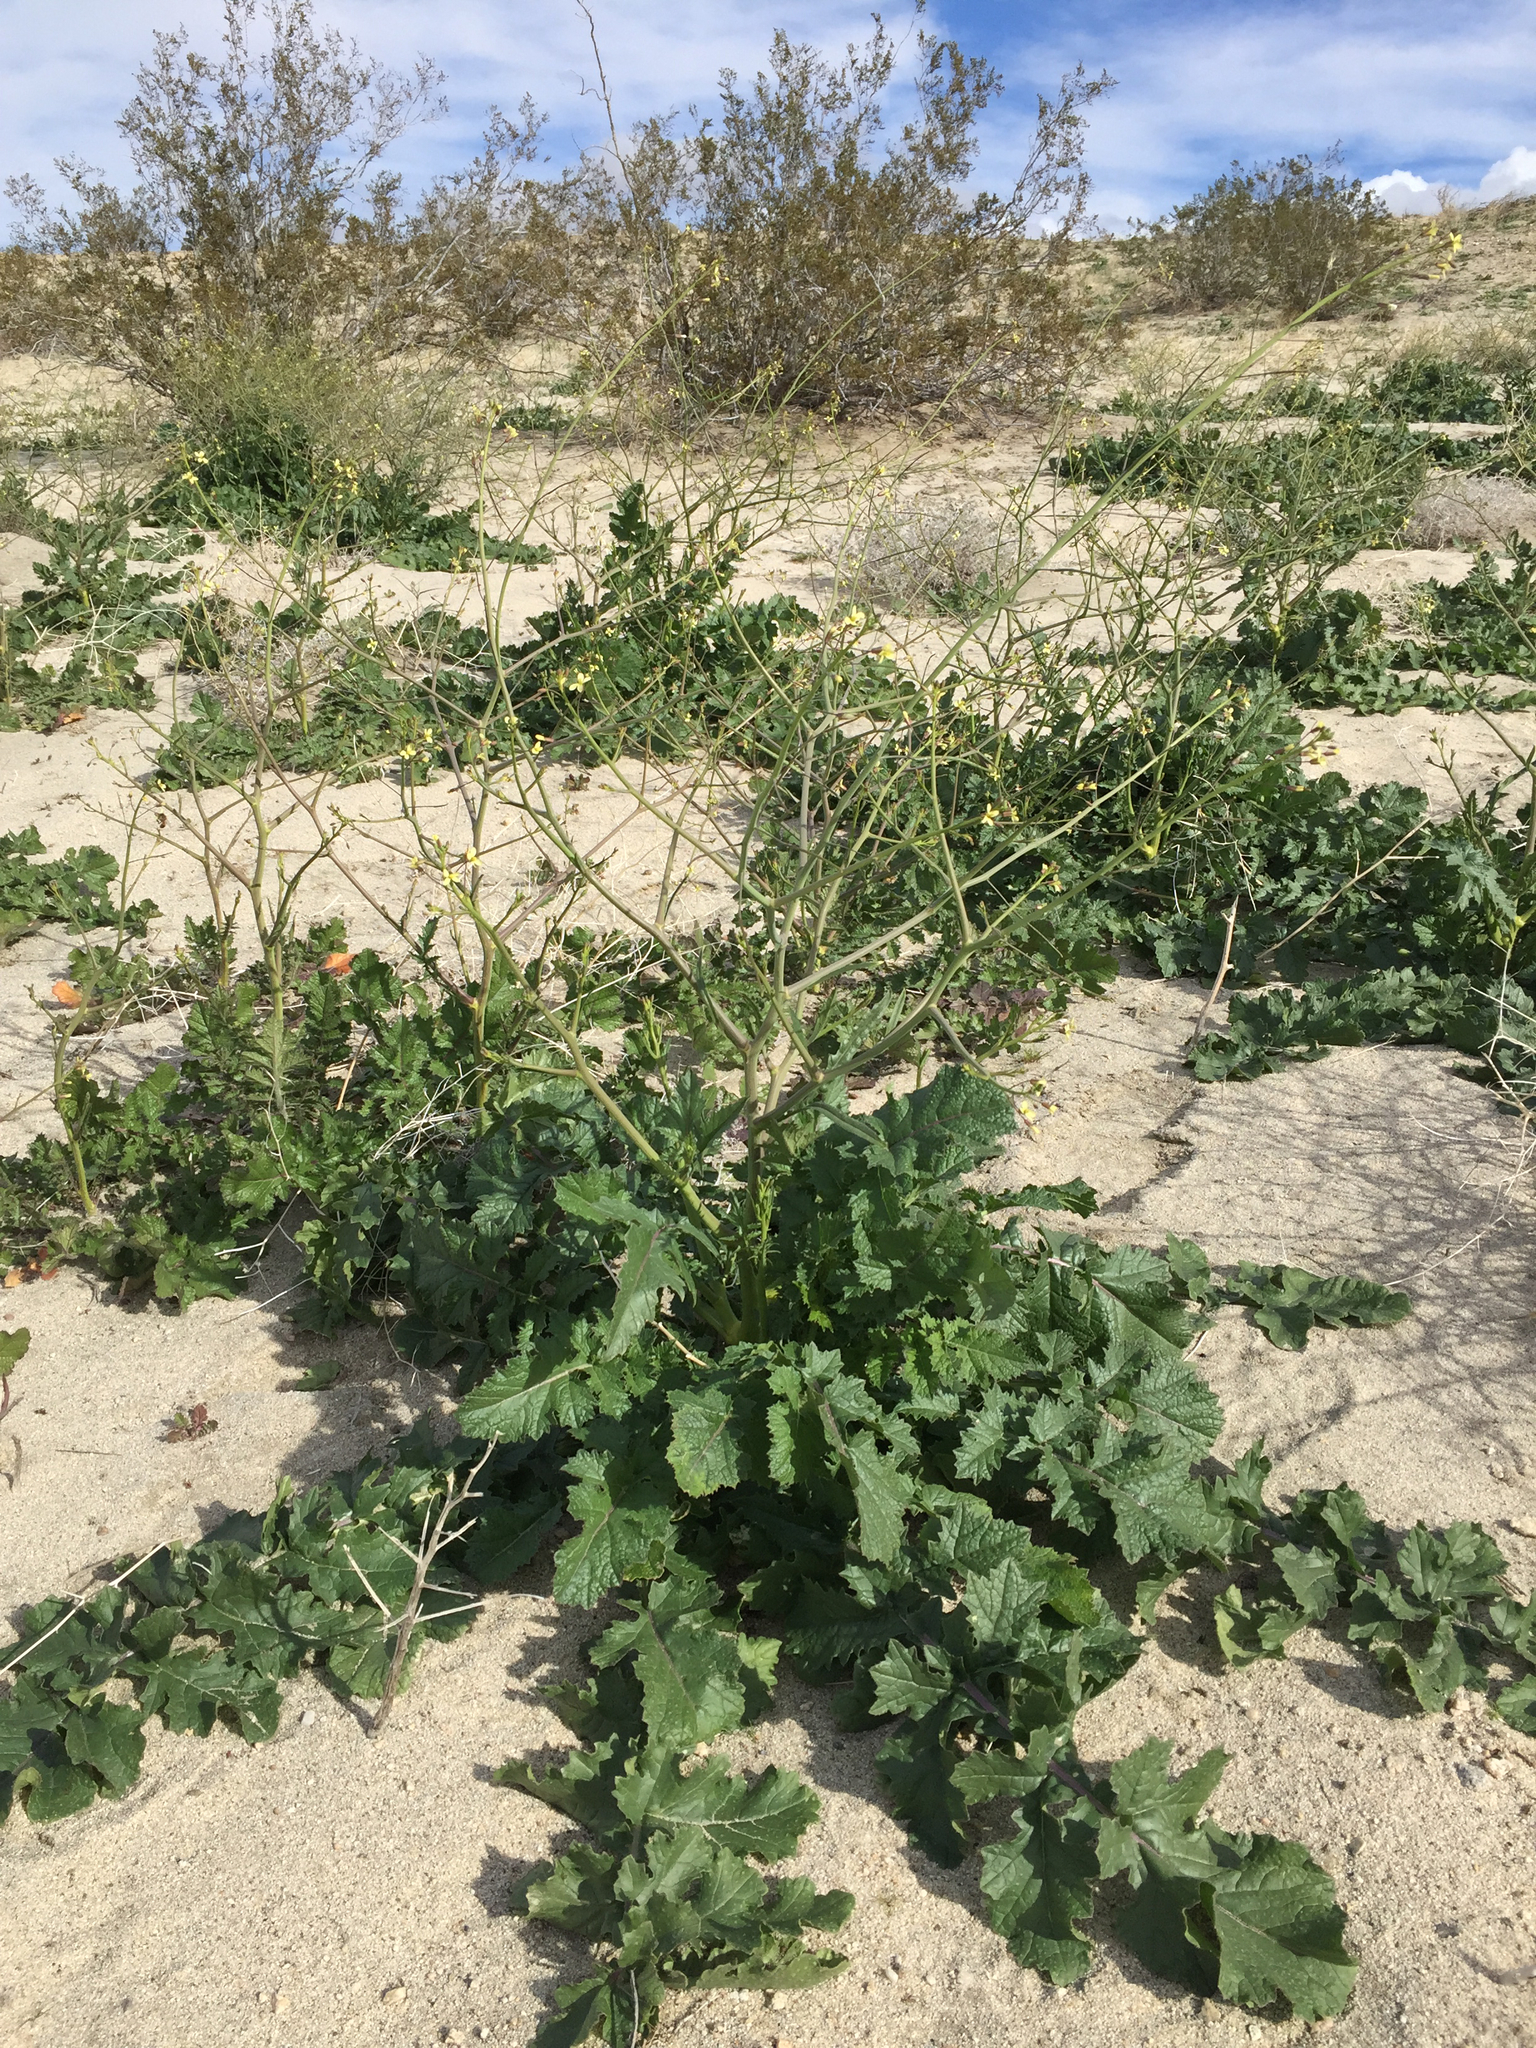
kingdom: Plantae
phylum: Tracheophyta
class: Magnoliopsida
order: Brassicales
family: Brassicaceae
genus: Brassica
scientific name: Brassica tournefortii
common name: Pale cabbage
